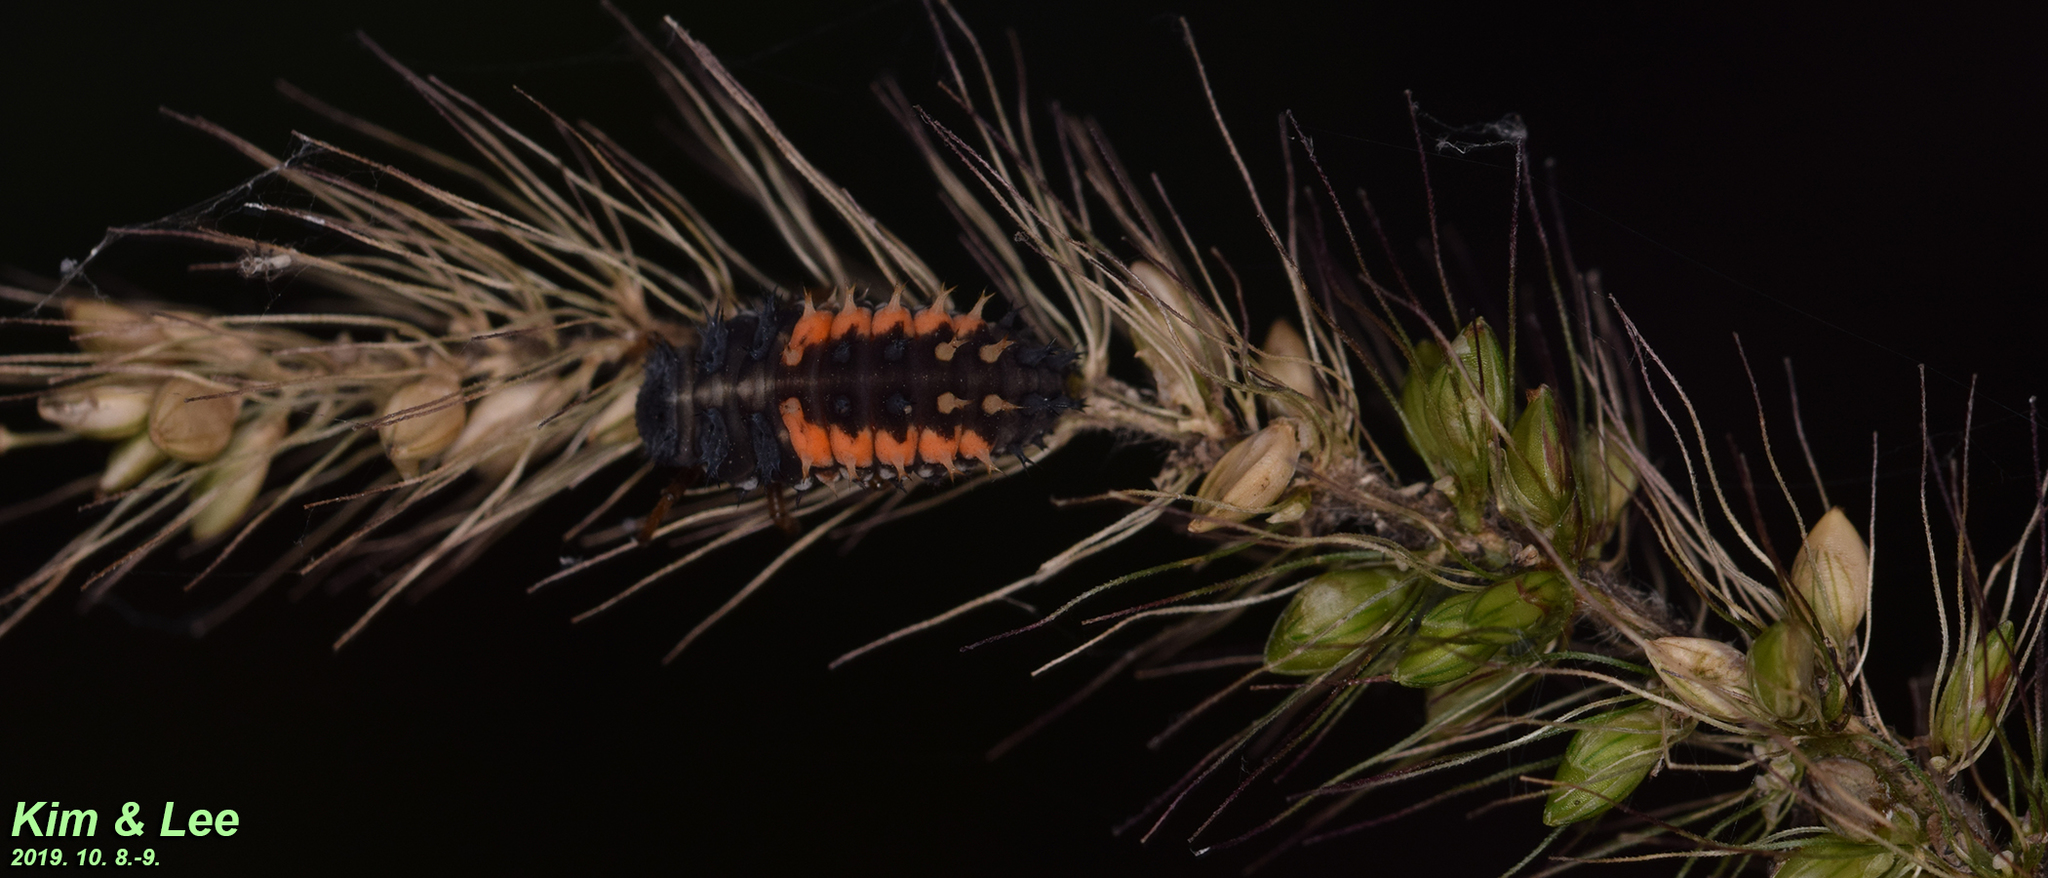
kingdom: Animalia
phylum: Arthropoda
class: Insecta
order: Coleoptera
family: Coccinellidae
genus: Harmonia
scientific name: Harmonia axyridis
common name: Harlequin ladybird
